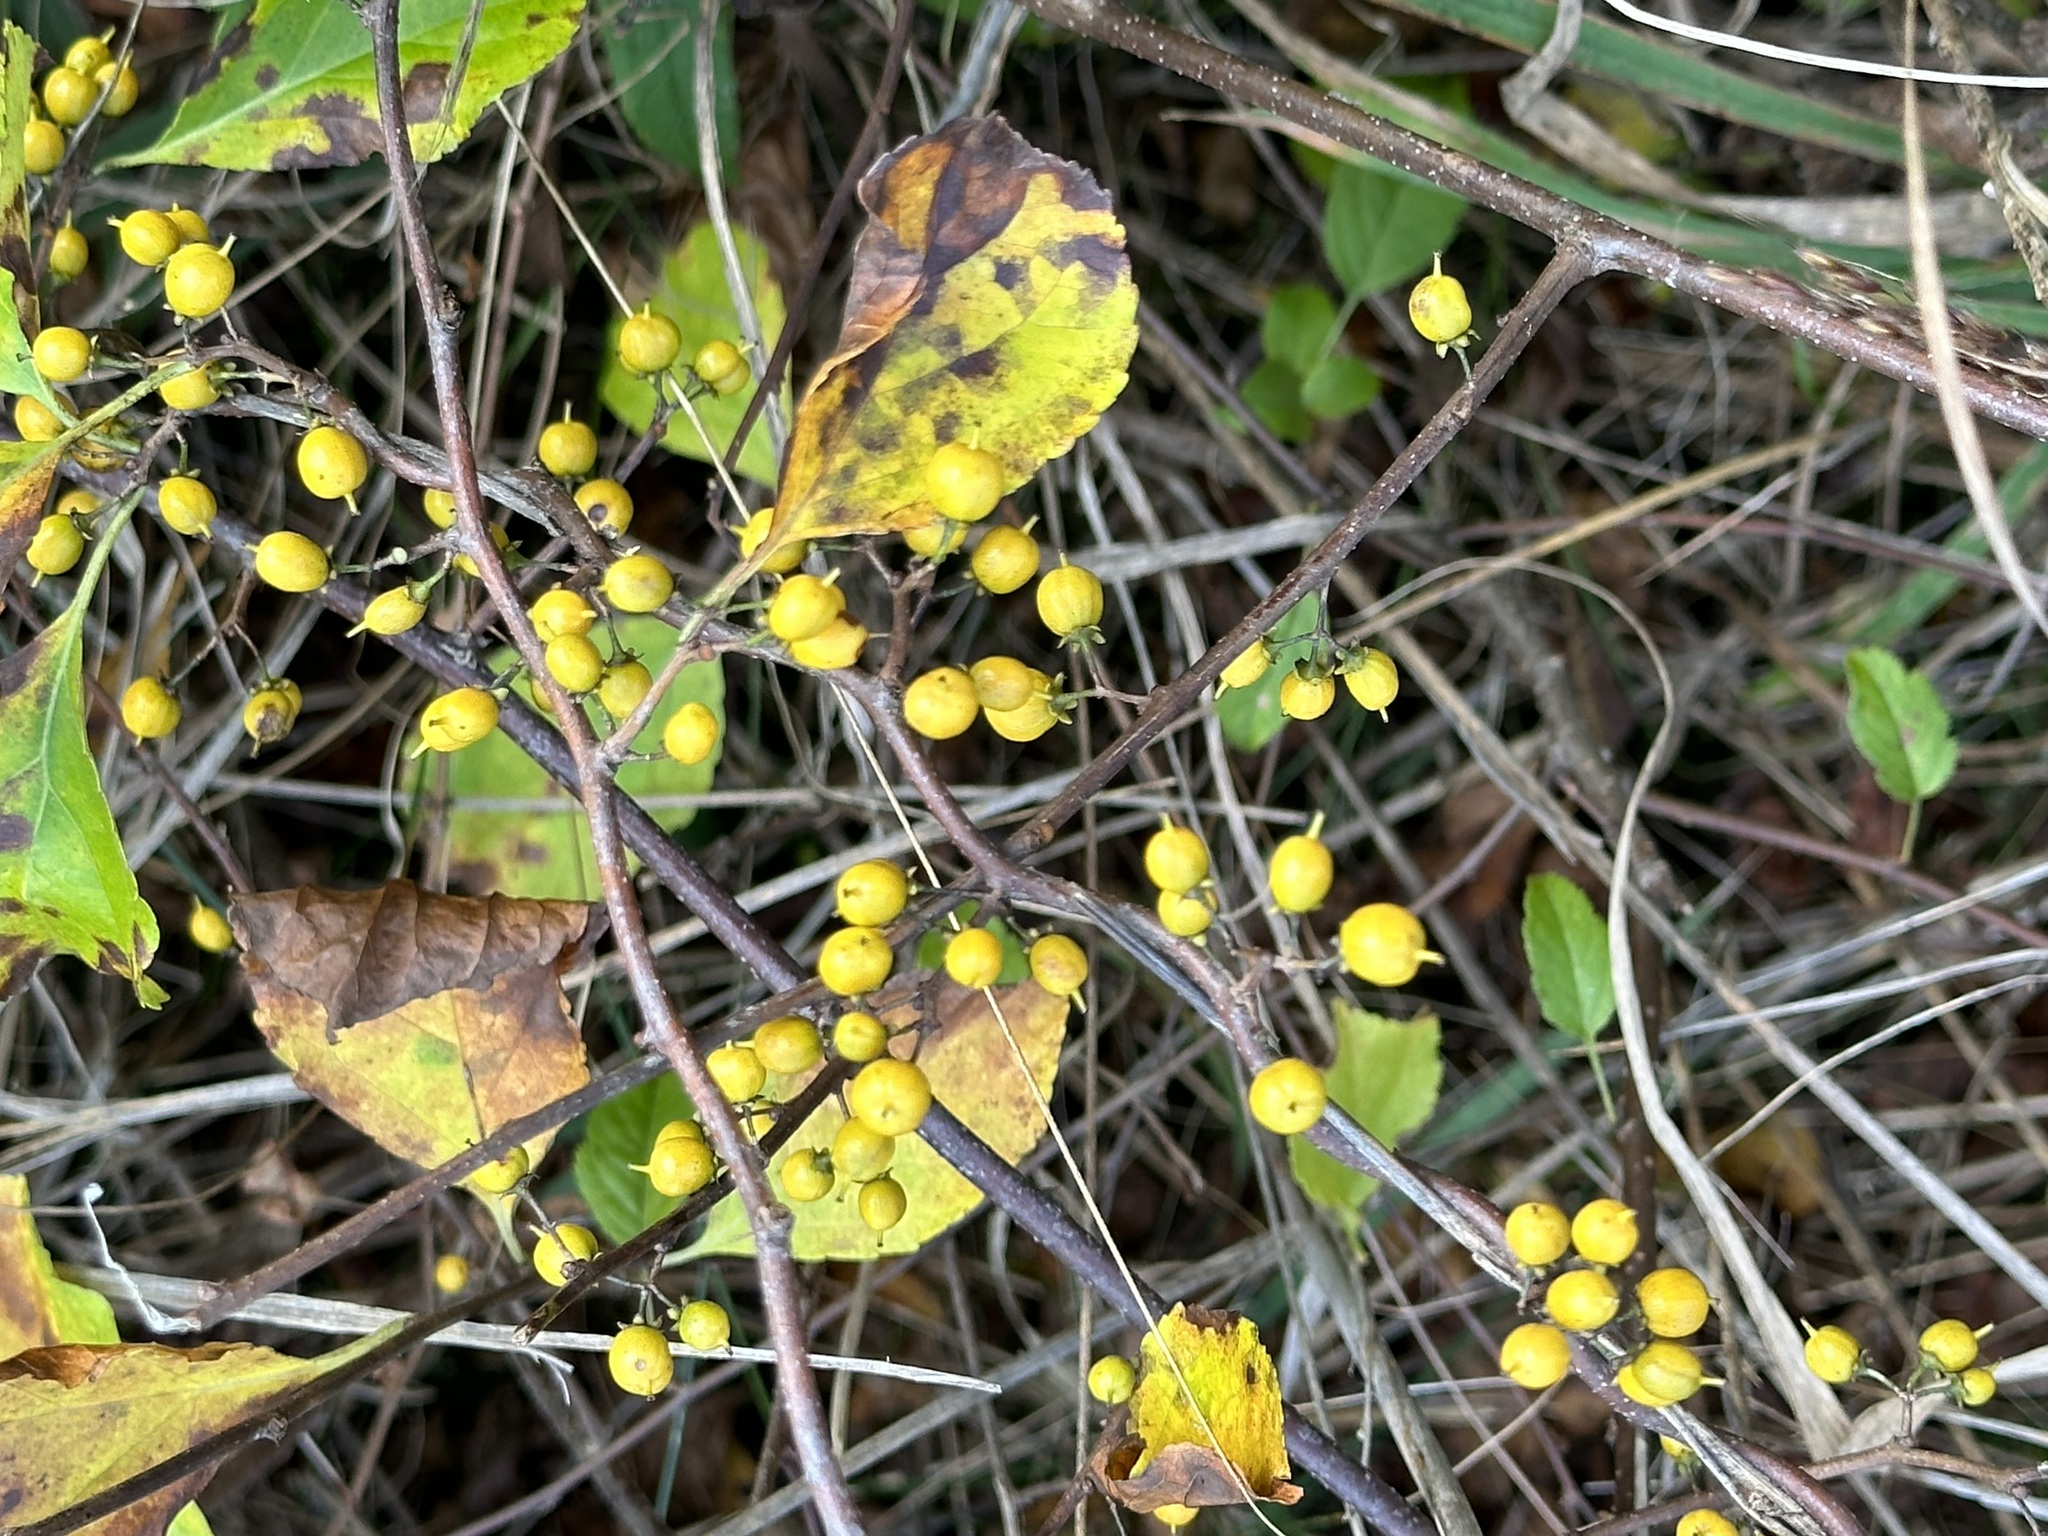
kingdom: Plantae
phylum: Tracheophyta
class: Magnoliopsida
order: Celastrales
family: Celastraceae
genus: Celastrus
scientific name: Celastrus orbiculatus
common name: Oriental bittersweet
